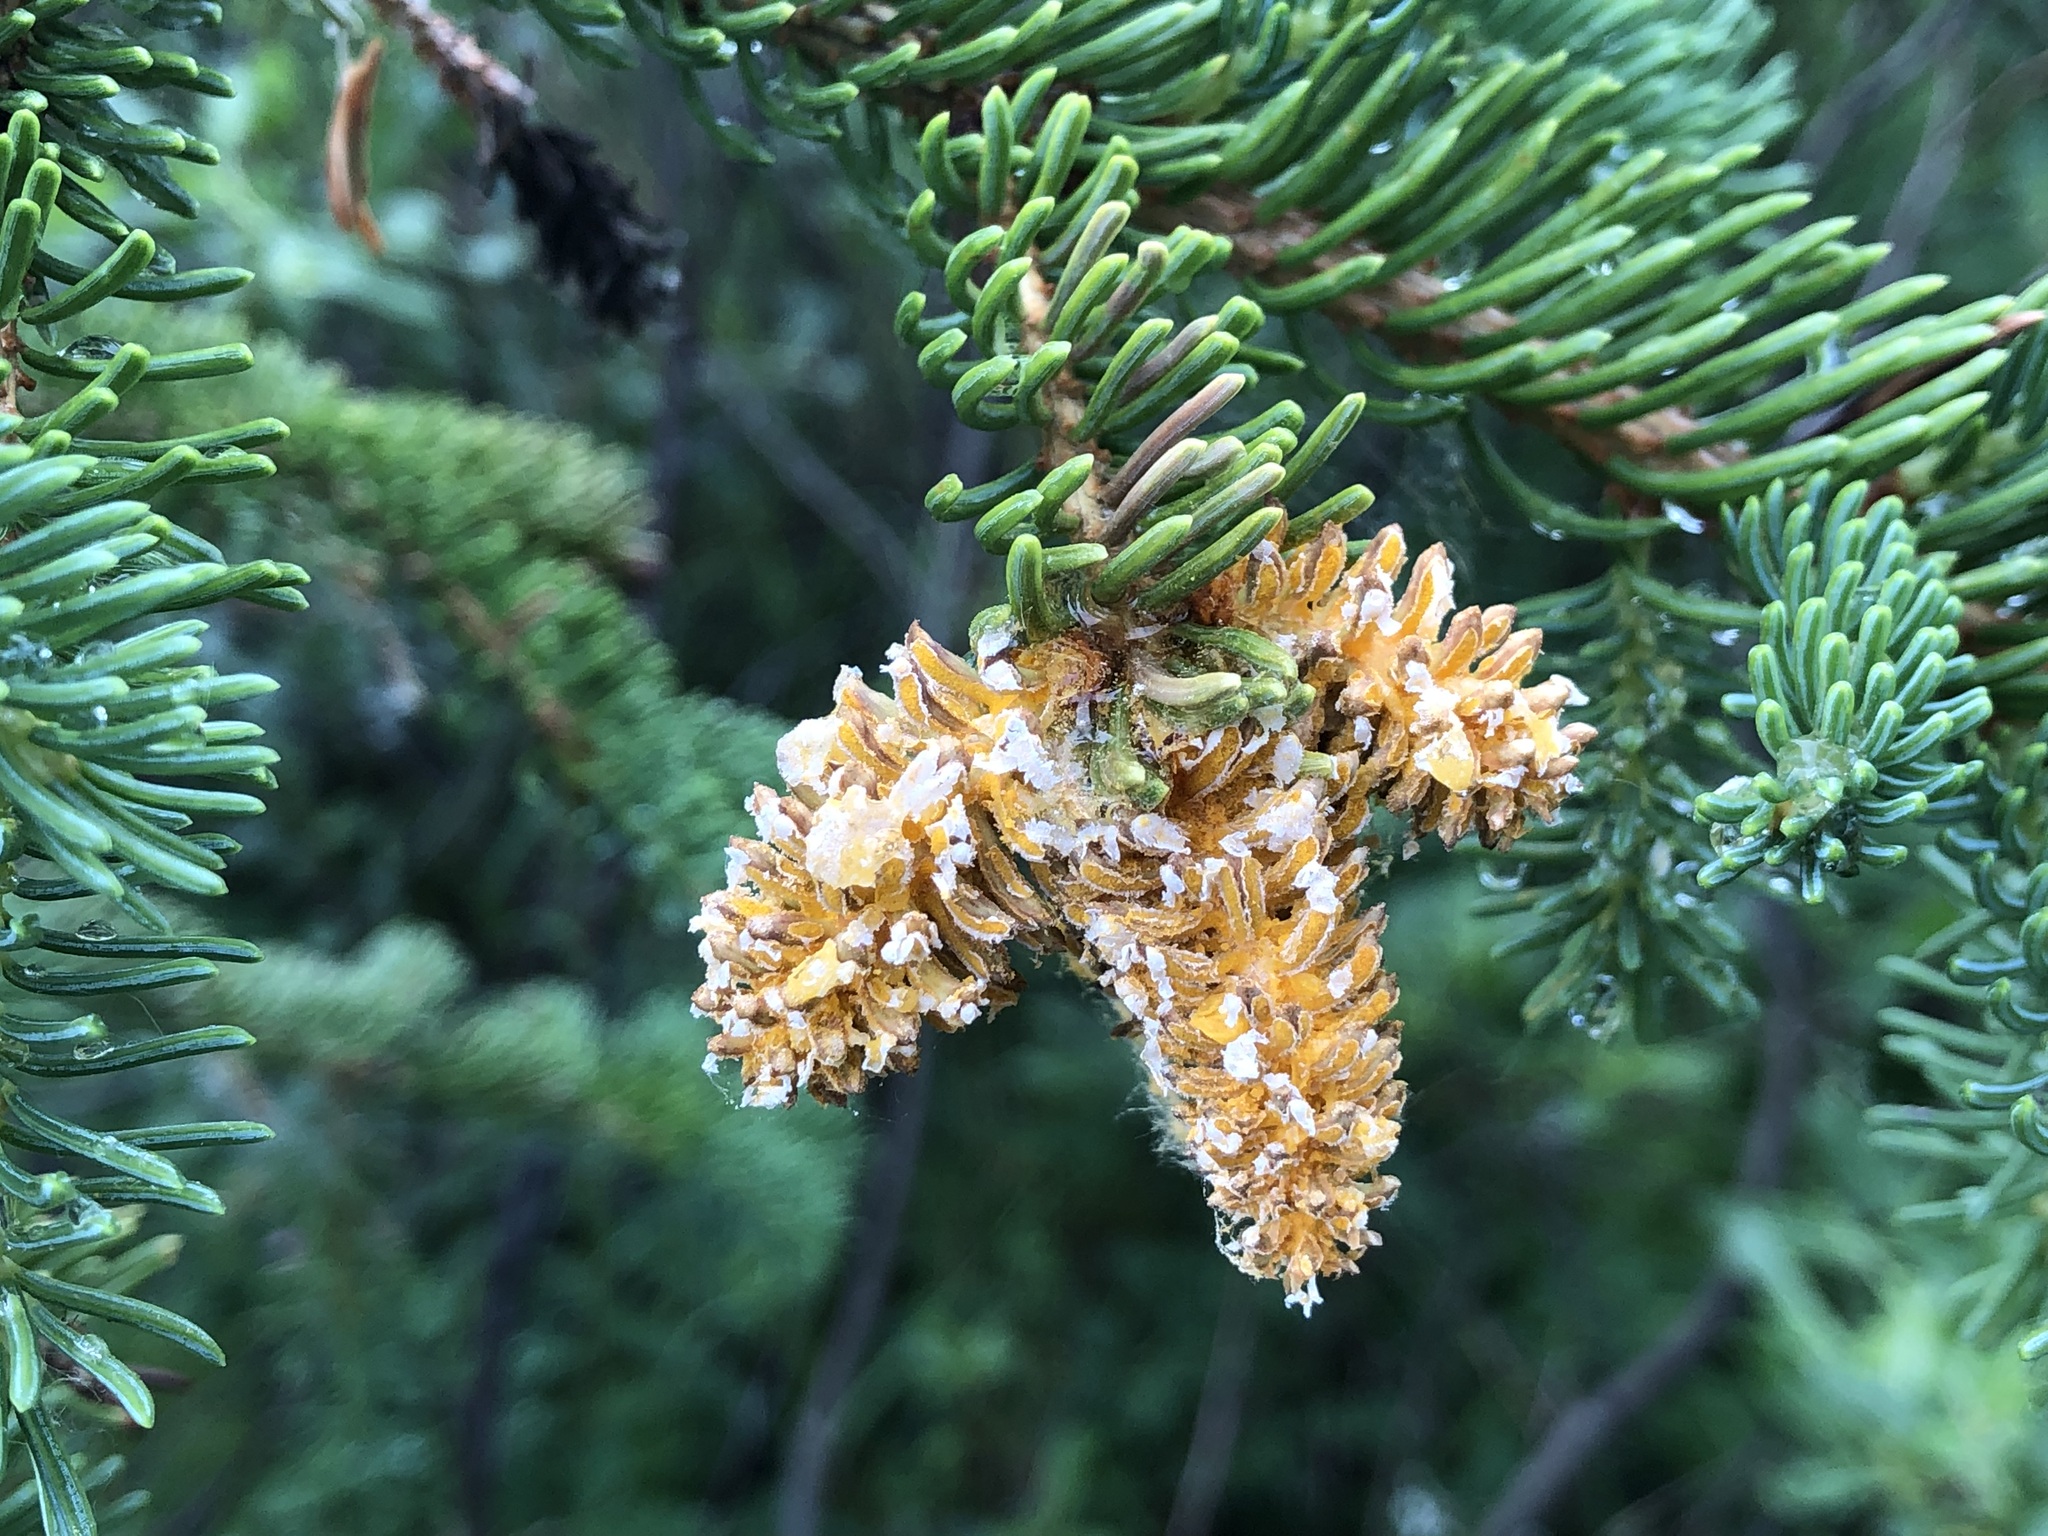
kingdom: Fungi
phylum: Basidiomycota
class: Pucciniomycetes
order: Pucciniales
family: Coleosporiaceae
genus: Chrysomyxa
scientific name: Chrysomyxa woroninii
